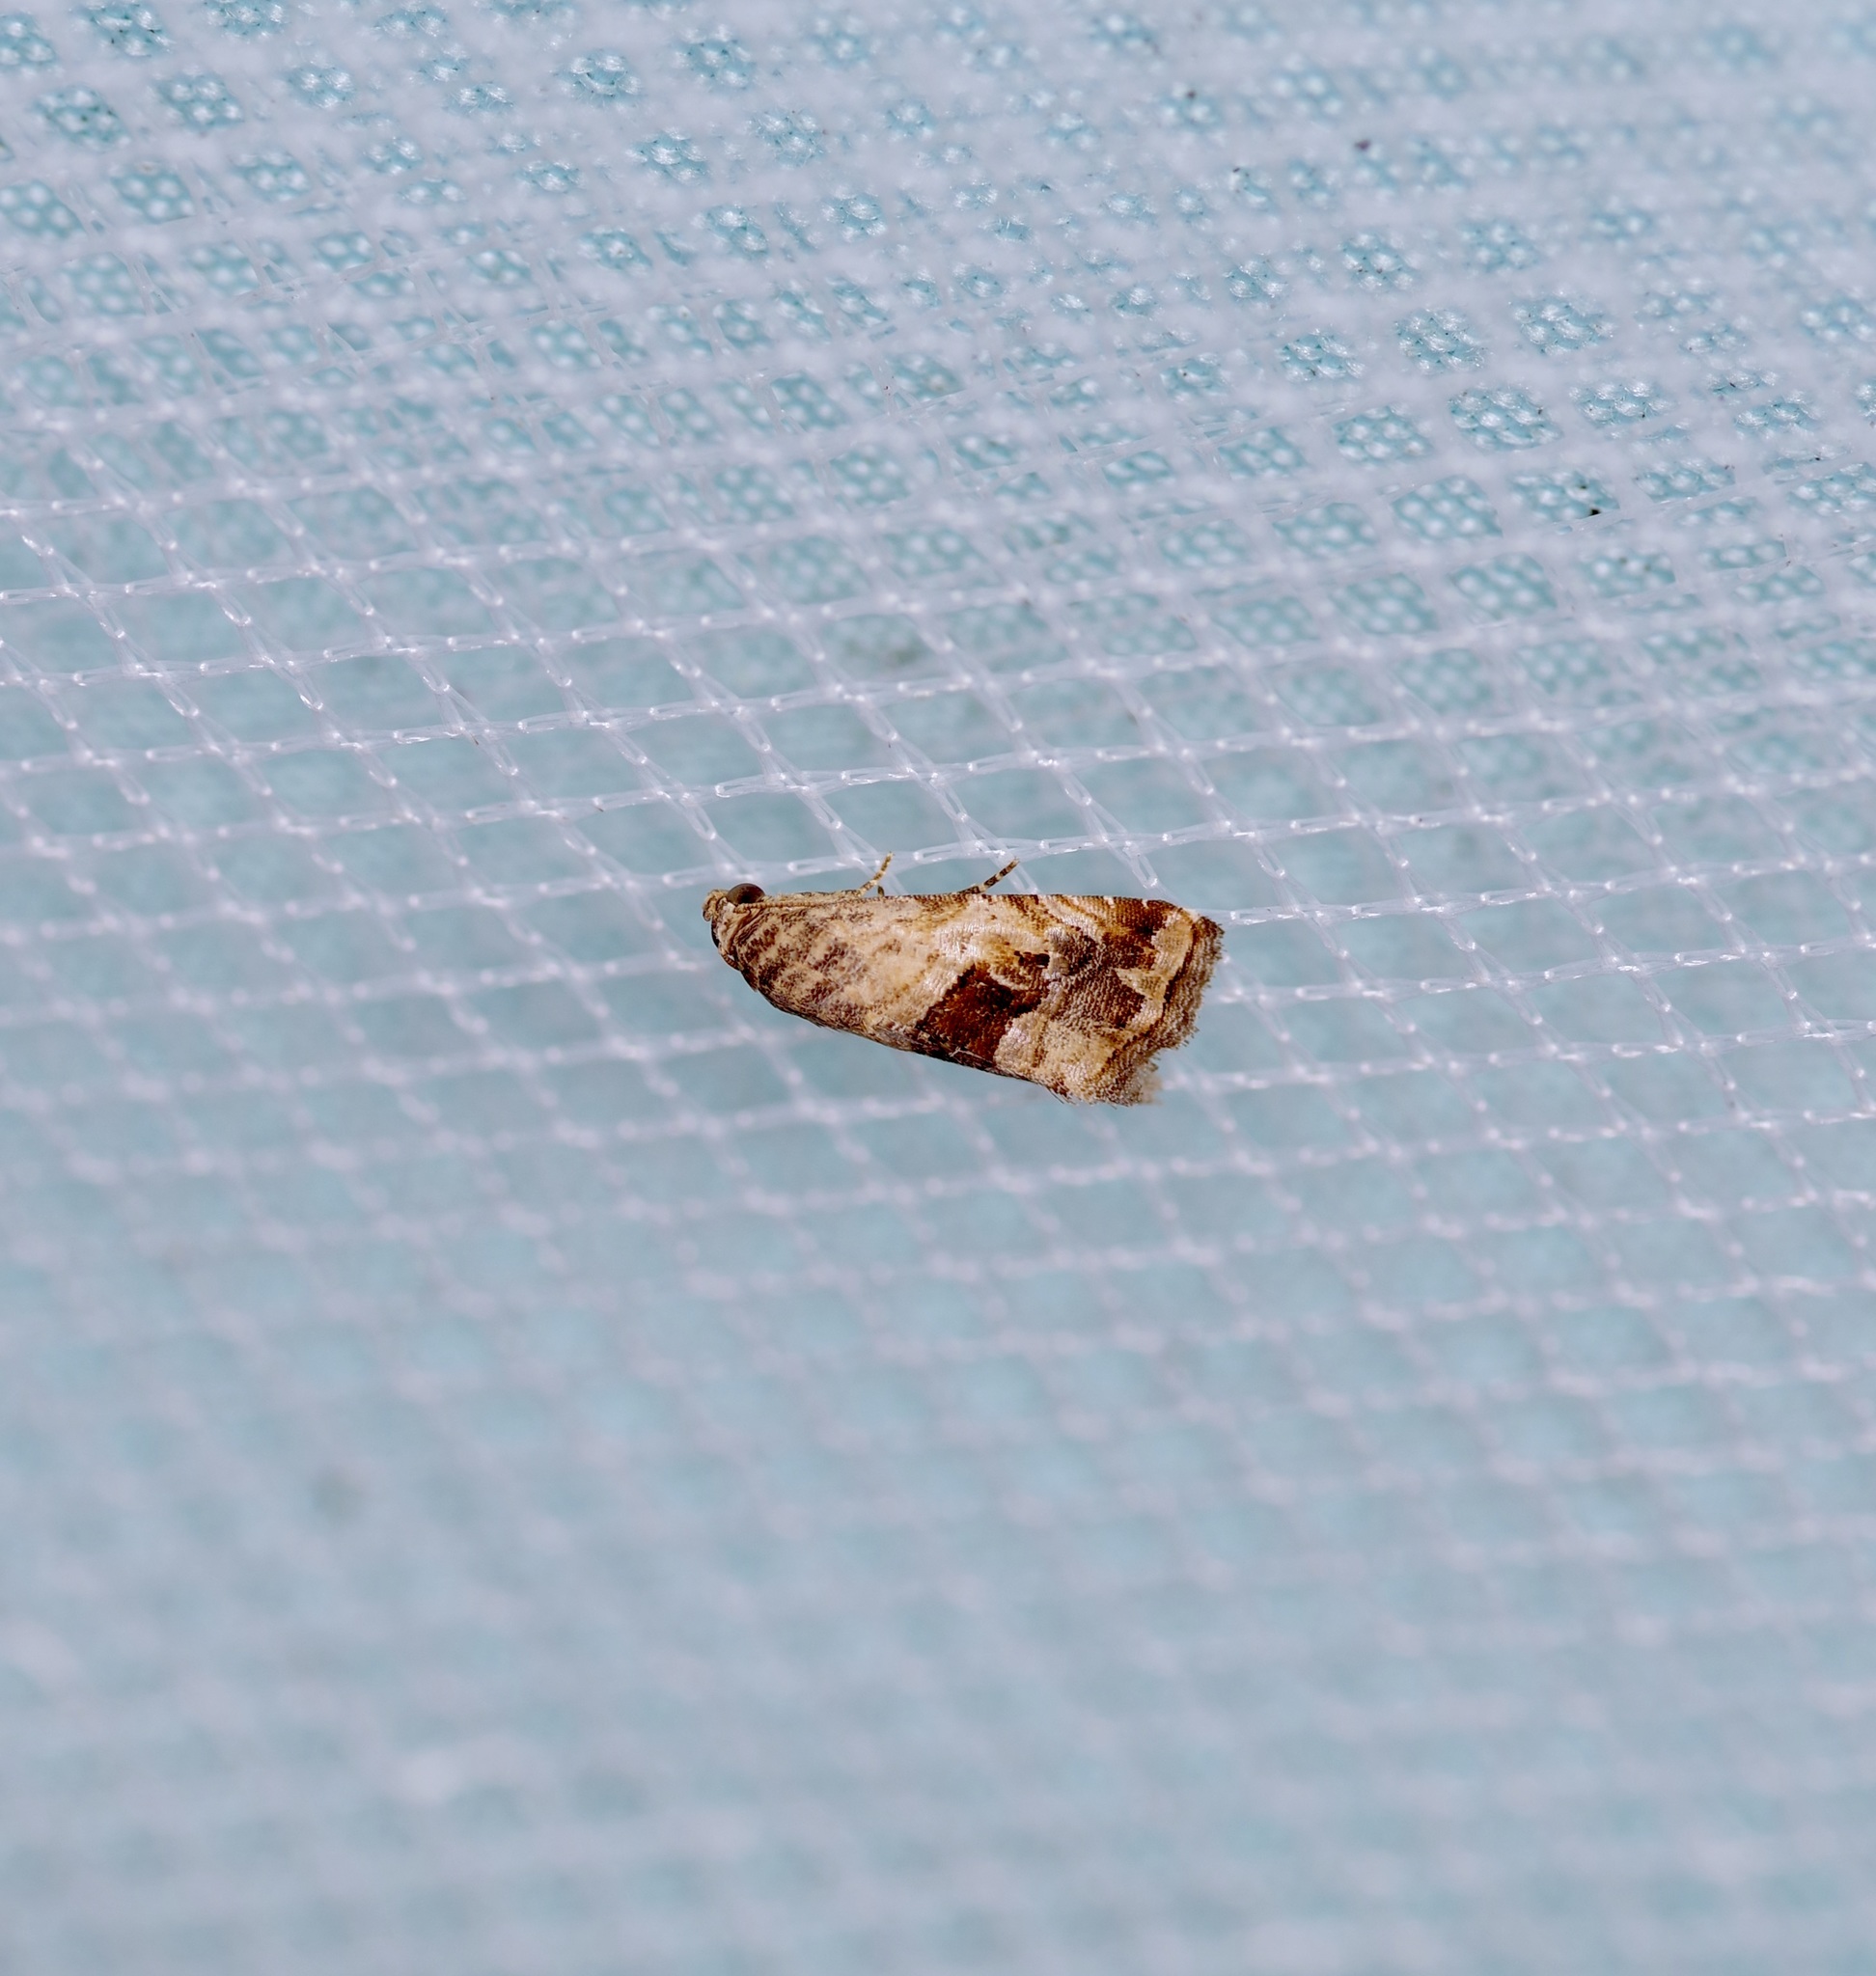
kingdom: Animalia
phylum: Arthropoda
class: Insecta
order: Lepidoptera
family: Noctuidae
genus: Tripudia
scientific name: Tripudia quadrifera
